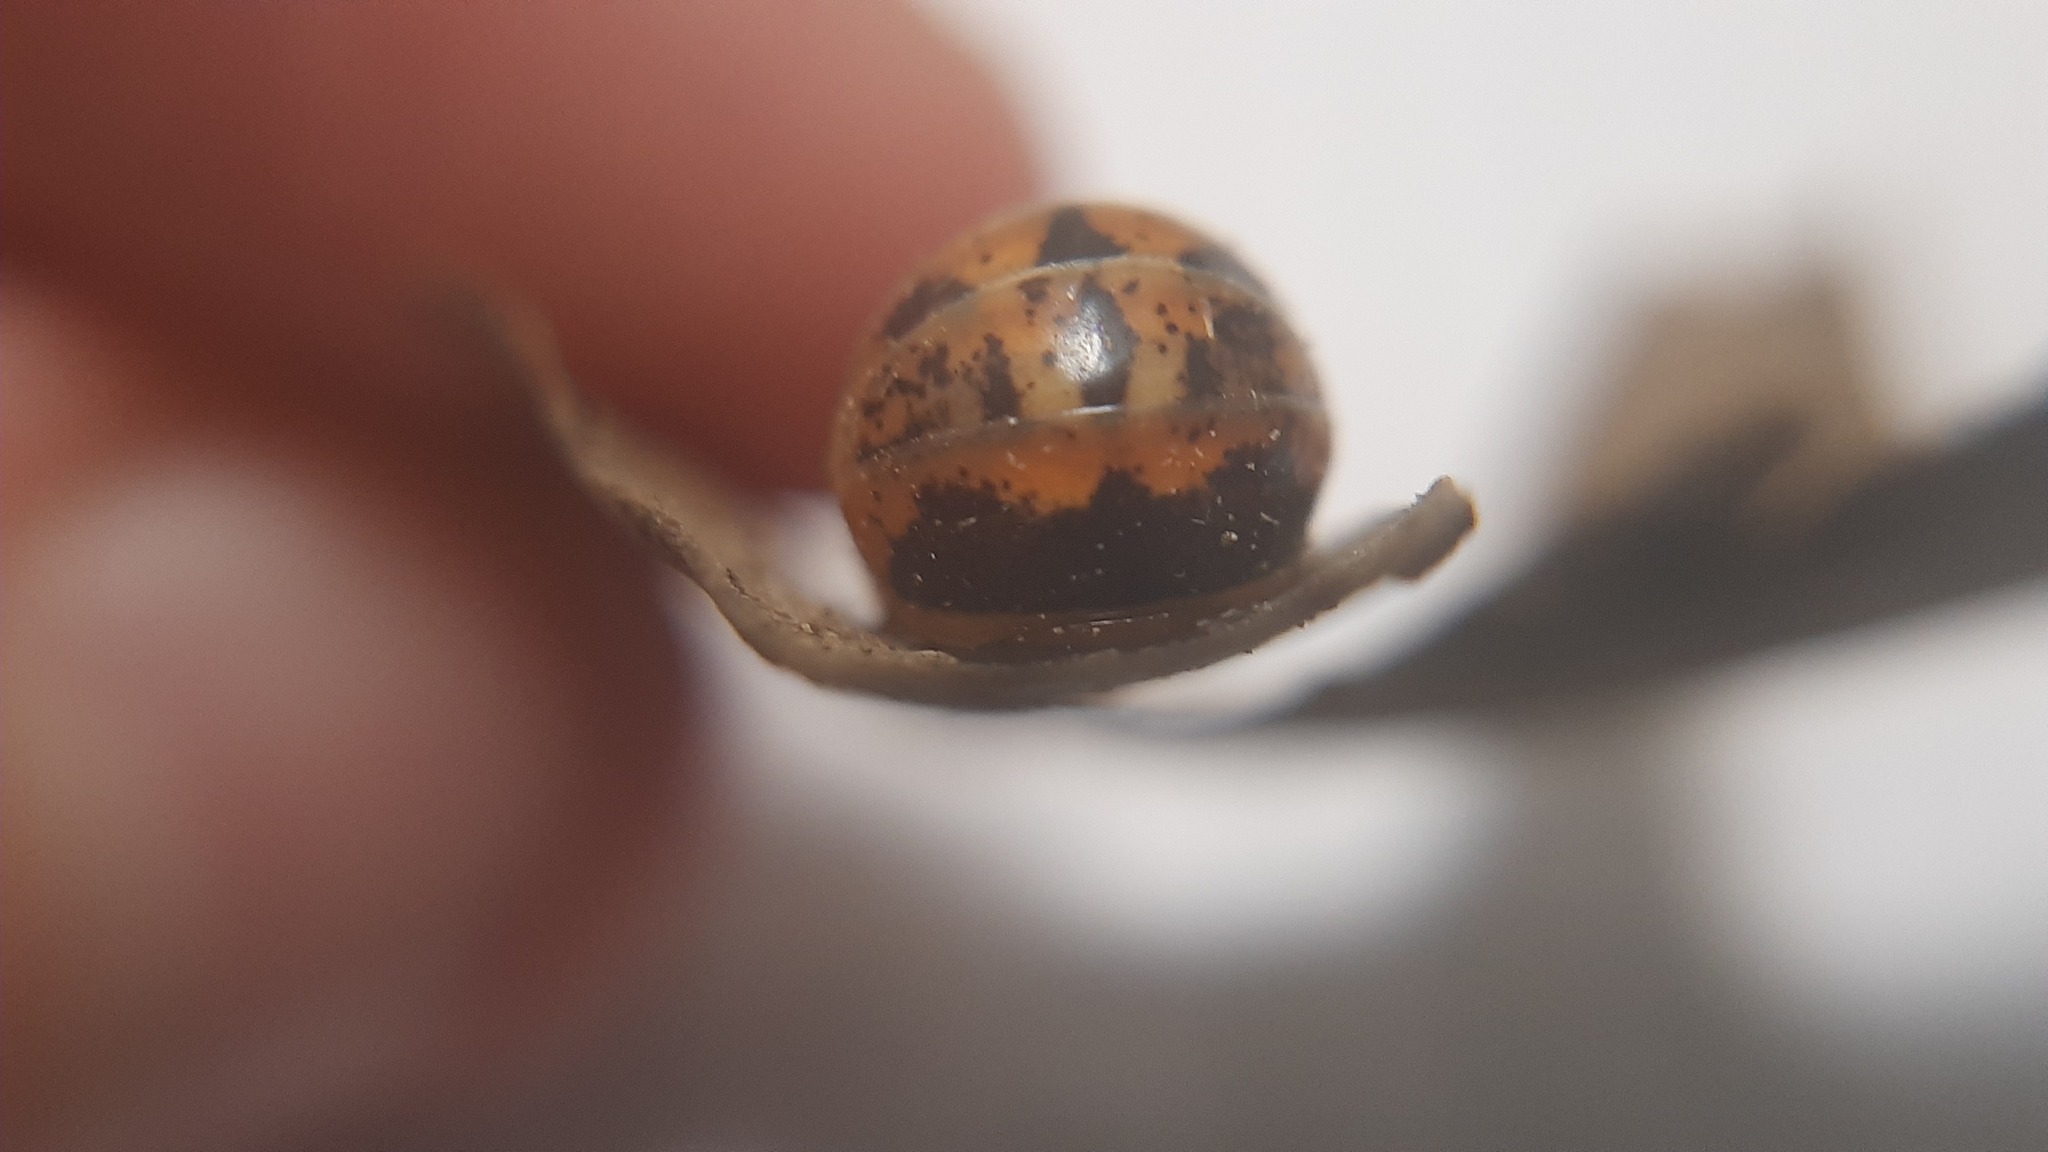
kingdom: Animalia
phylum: Arthropoda
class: Diplopoda
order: Glomerida
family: Glomeridae
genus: Glomeris
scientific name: Glomeris klugii
